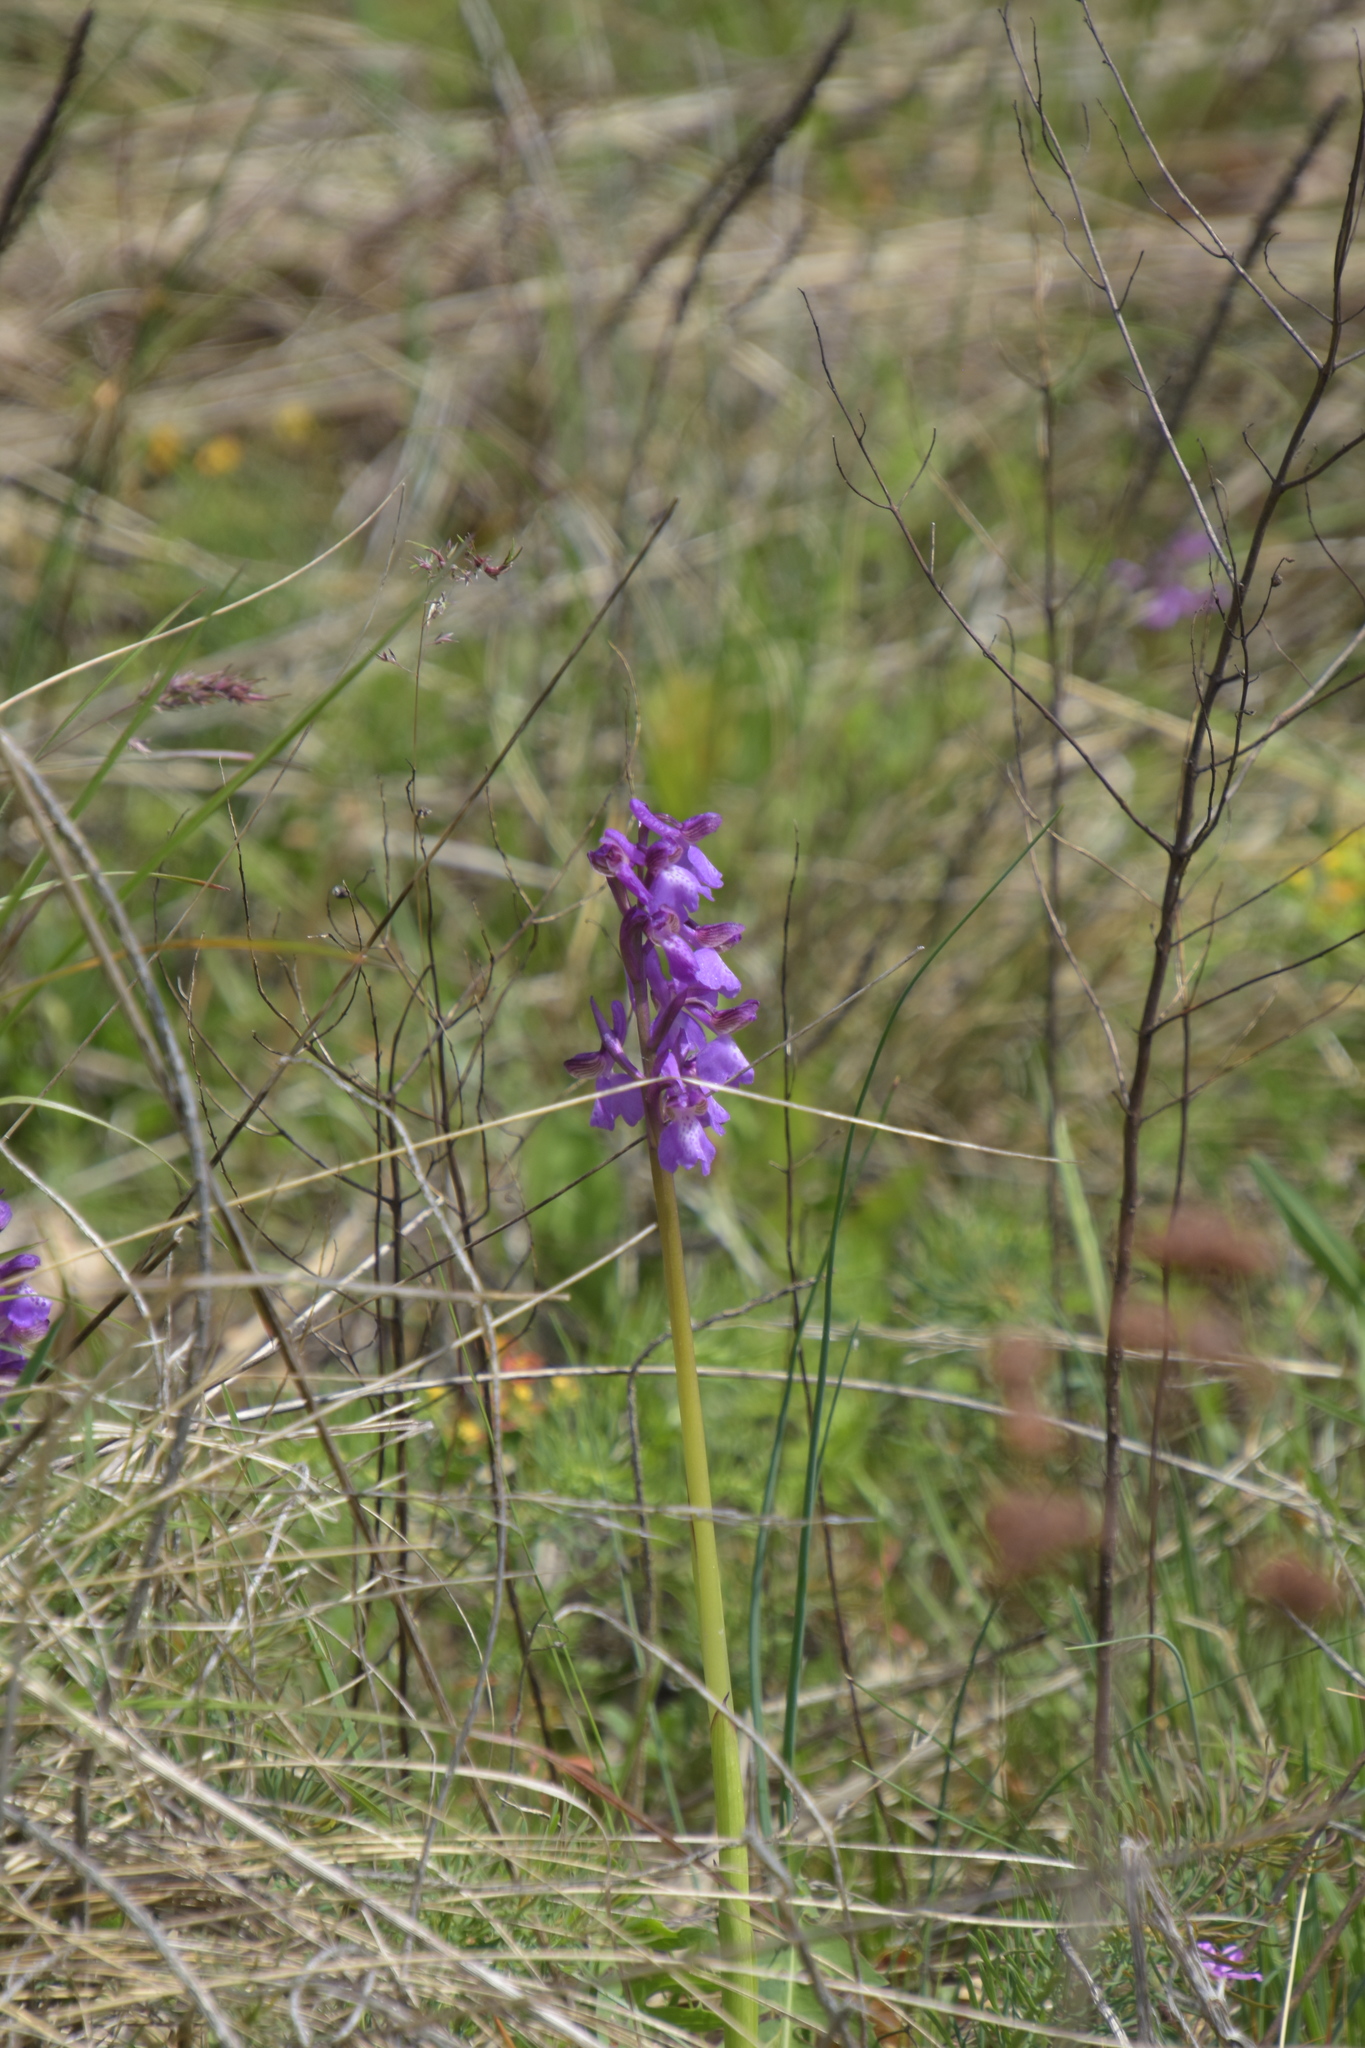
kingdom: Plantae
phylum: Tracheophyta
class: Liliopsida
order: Asparagales
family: Orchidaceae
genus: Anacamptis
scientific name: Anacamptis morio
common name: Green-winged orchid
